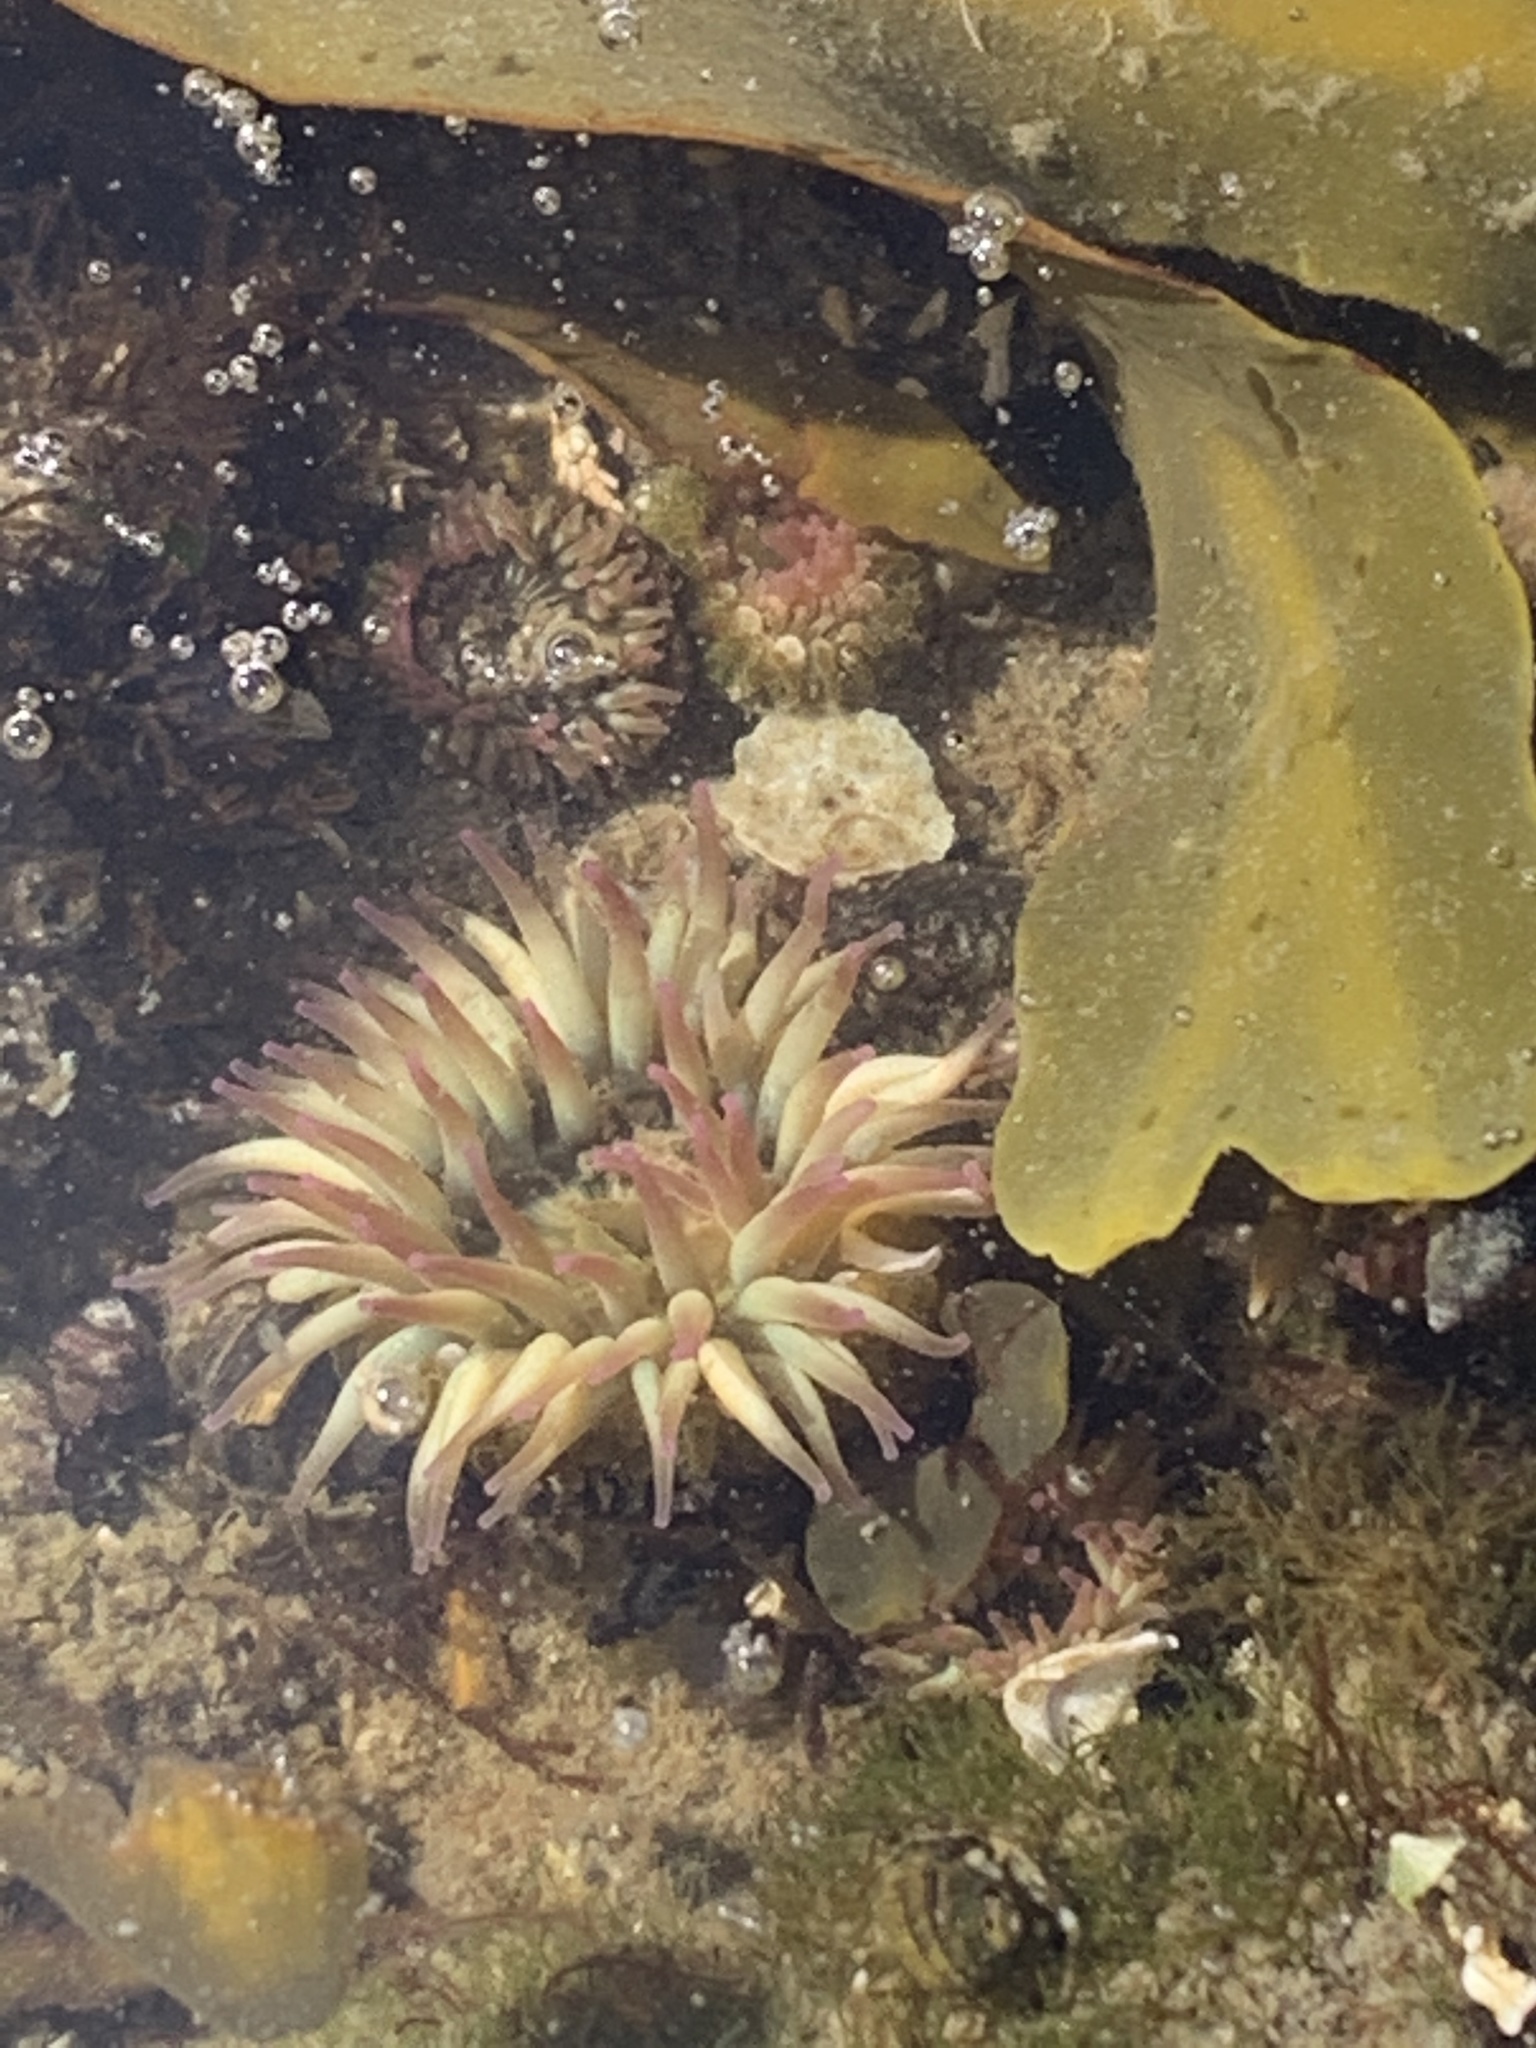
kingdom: Animalia
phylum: Cnidaria
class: Anthozoa
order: Actiniaria
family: Actiniidae
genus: Anthopleura
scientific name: Anthopleura elegantissima
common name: Clonal anemone
